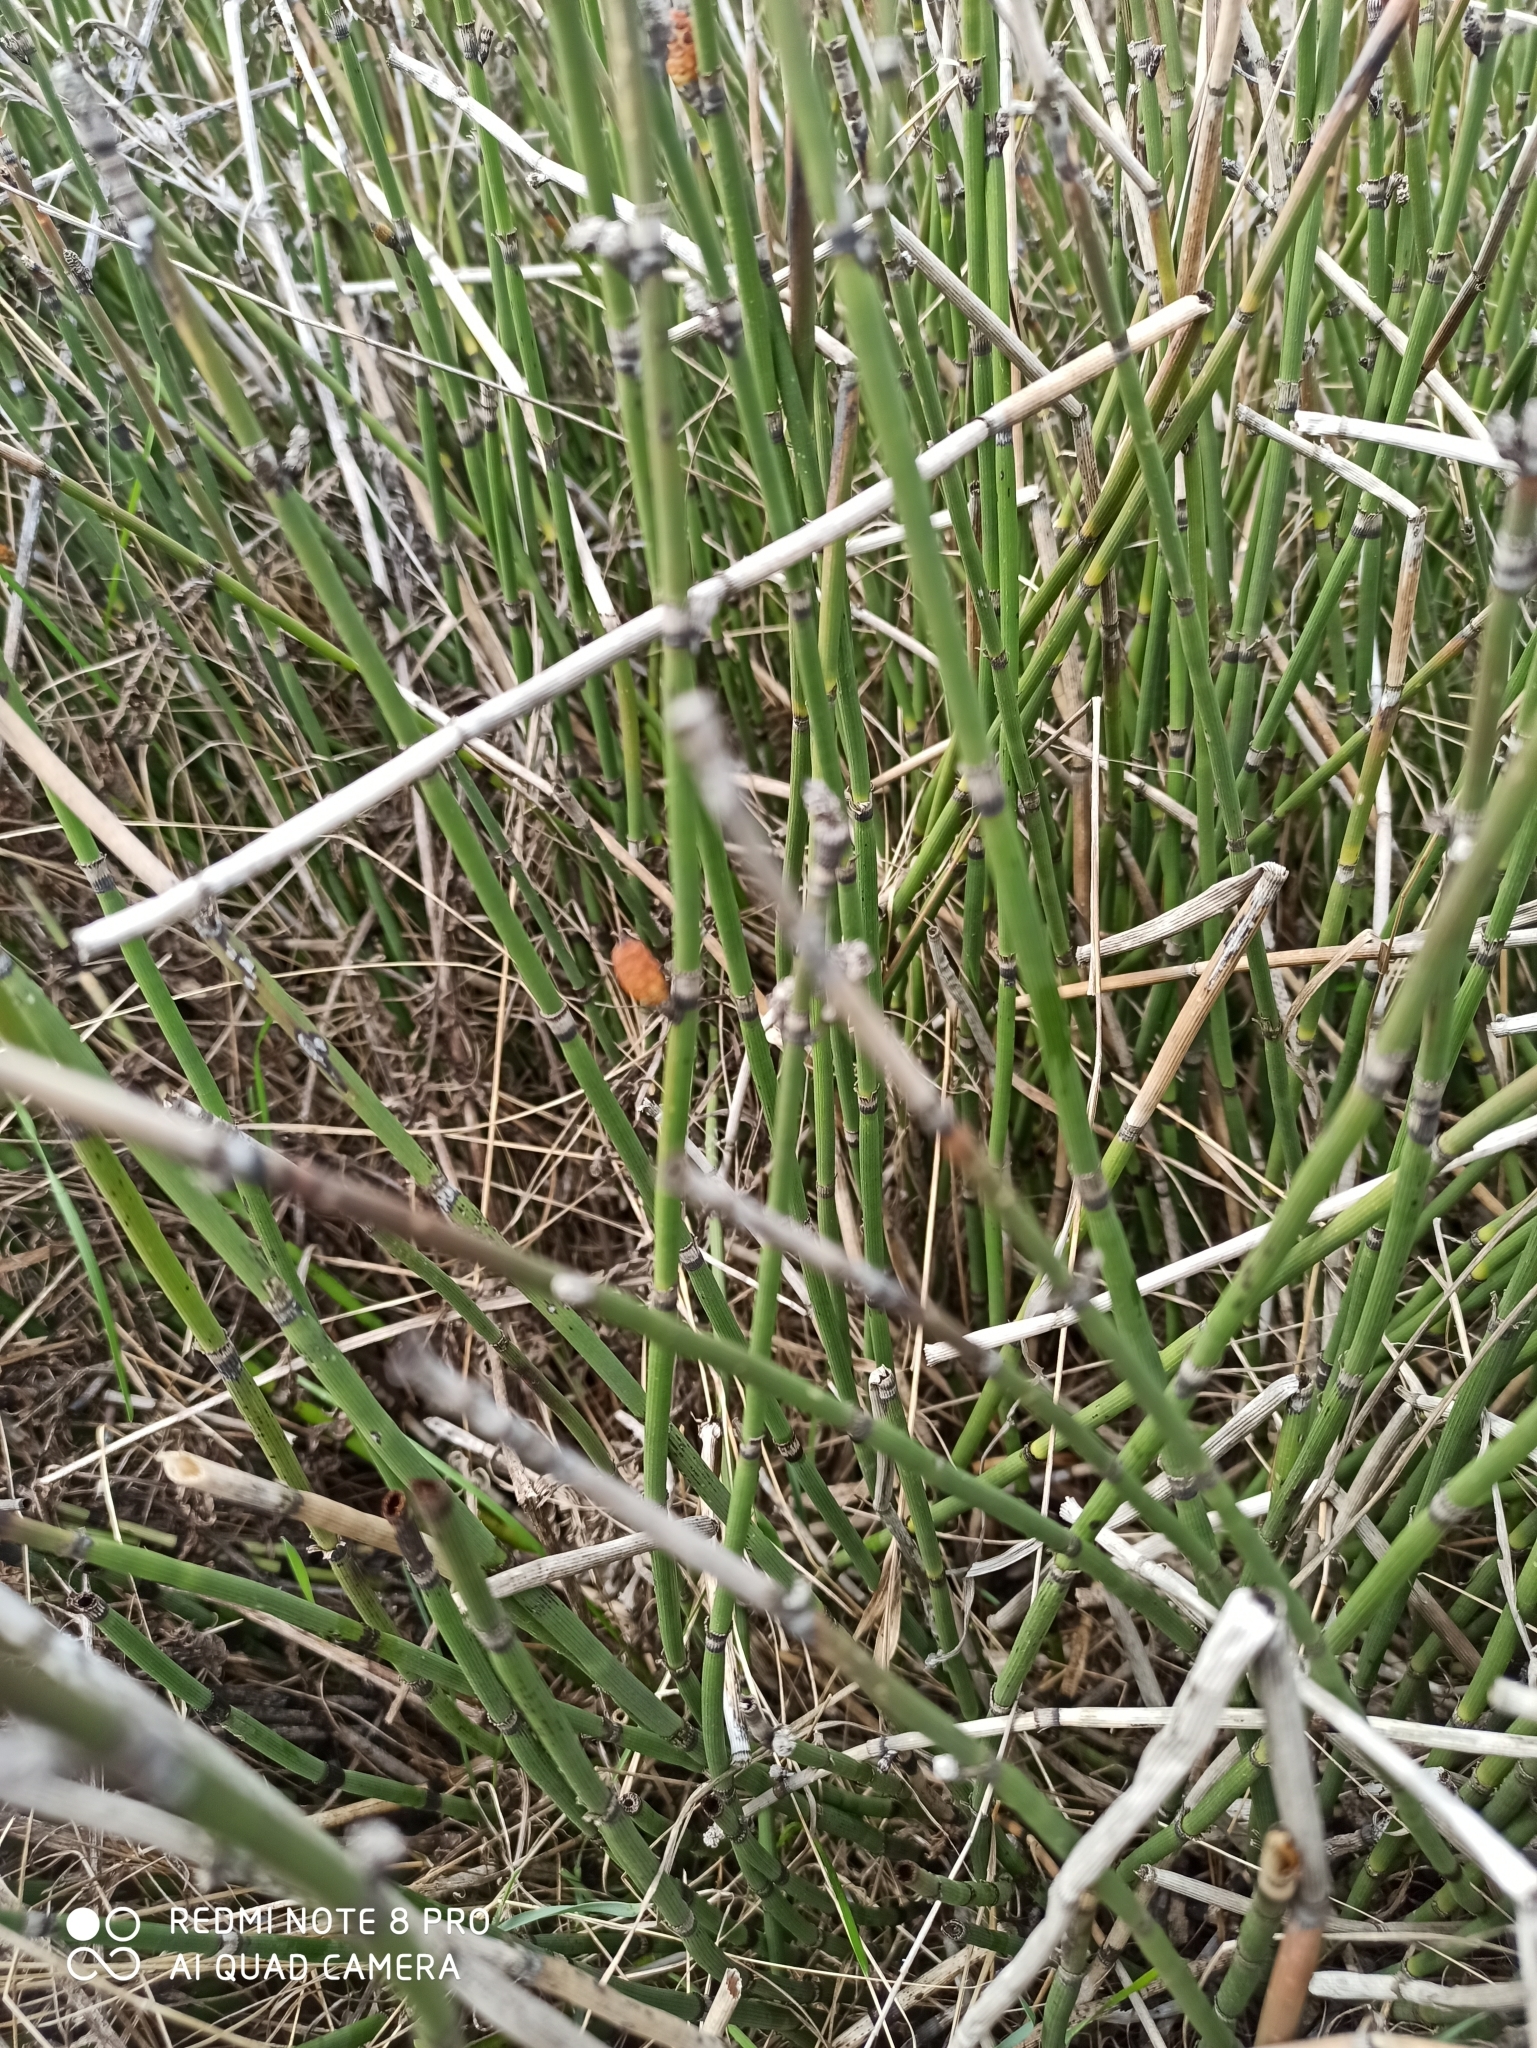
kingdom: Plantae
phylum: Tracheophyta
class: Polypodiopsida
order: Equisetales
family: Equisetaceae
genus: Equisetum
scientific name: Equisetum hyemale
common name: Rough horsetail
